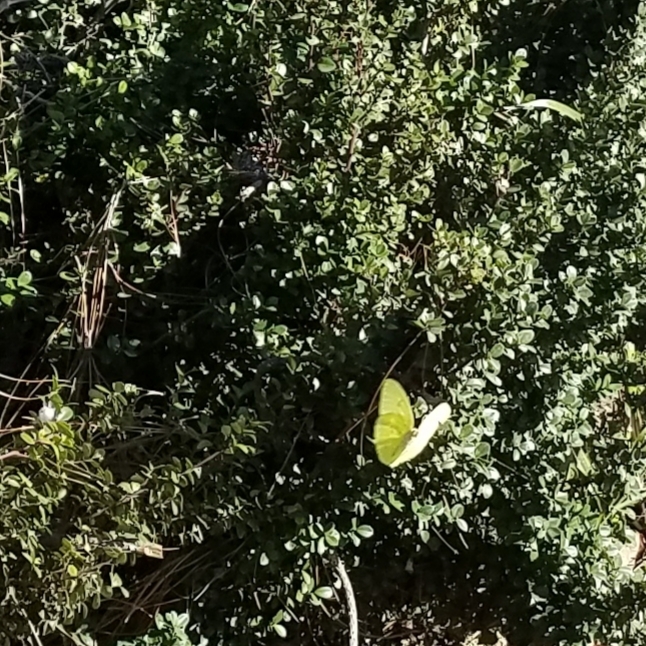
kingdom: Animalia
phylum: Arthropoda
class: Insecta
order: Lepidoptera
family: Pieridae
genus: Phoebis
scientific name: Phoebis sennae
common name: Cloudless sulphur
